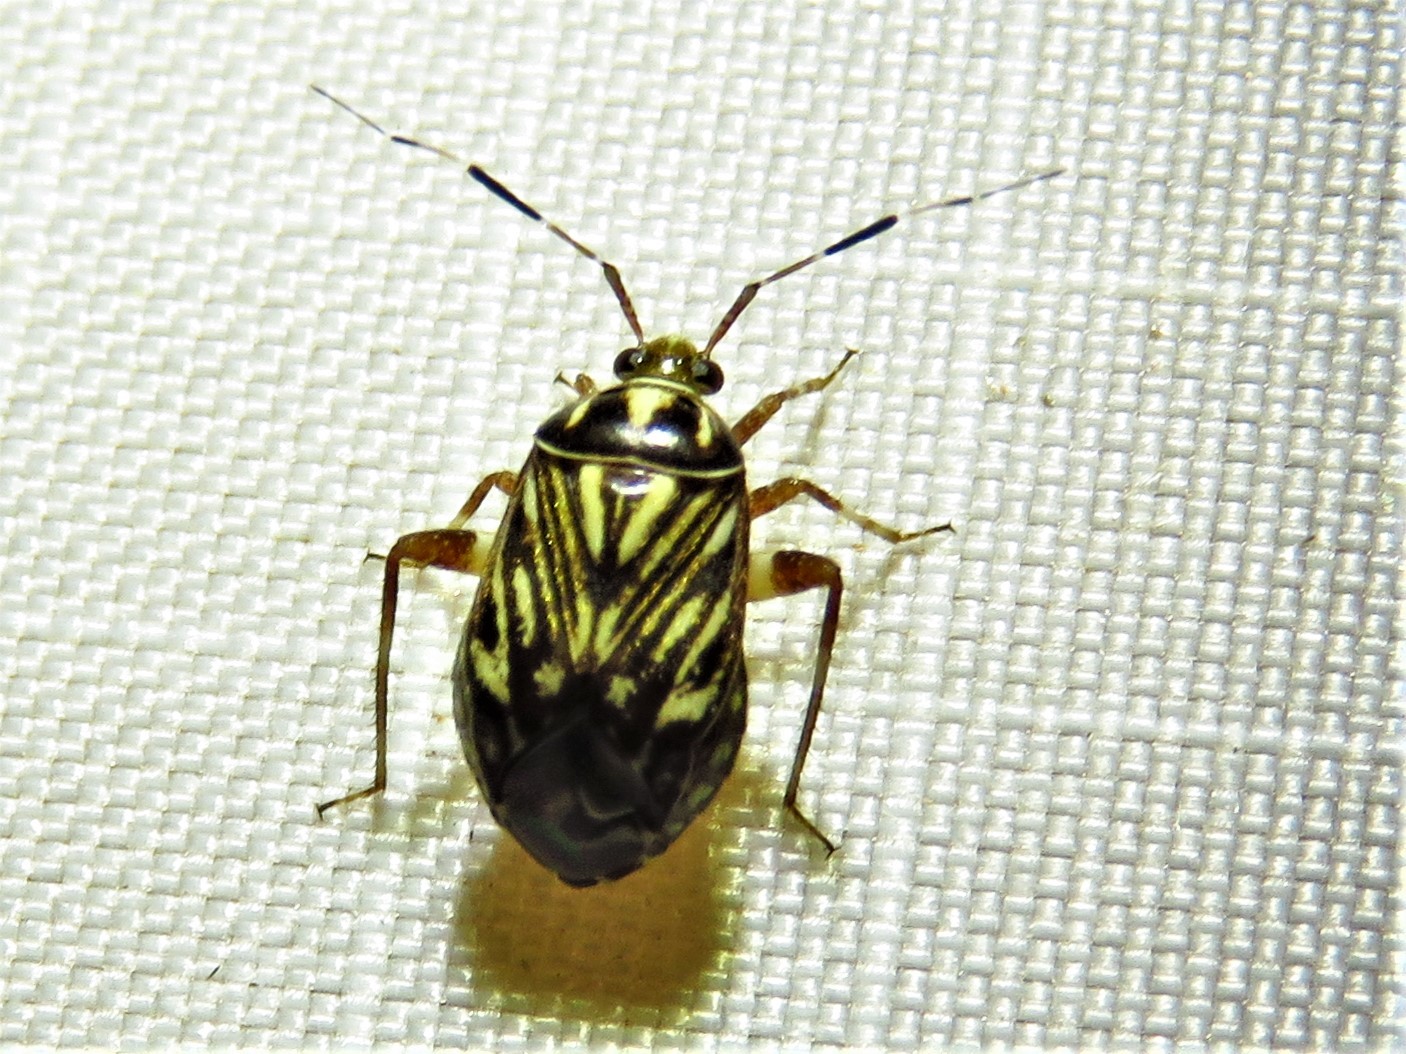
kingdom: Animalia
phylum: Arthropoda
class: Insecta
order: Hemiptera
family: Miridae
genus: Taedia
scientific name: Taedia virgulata
